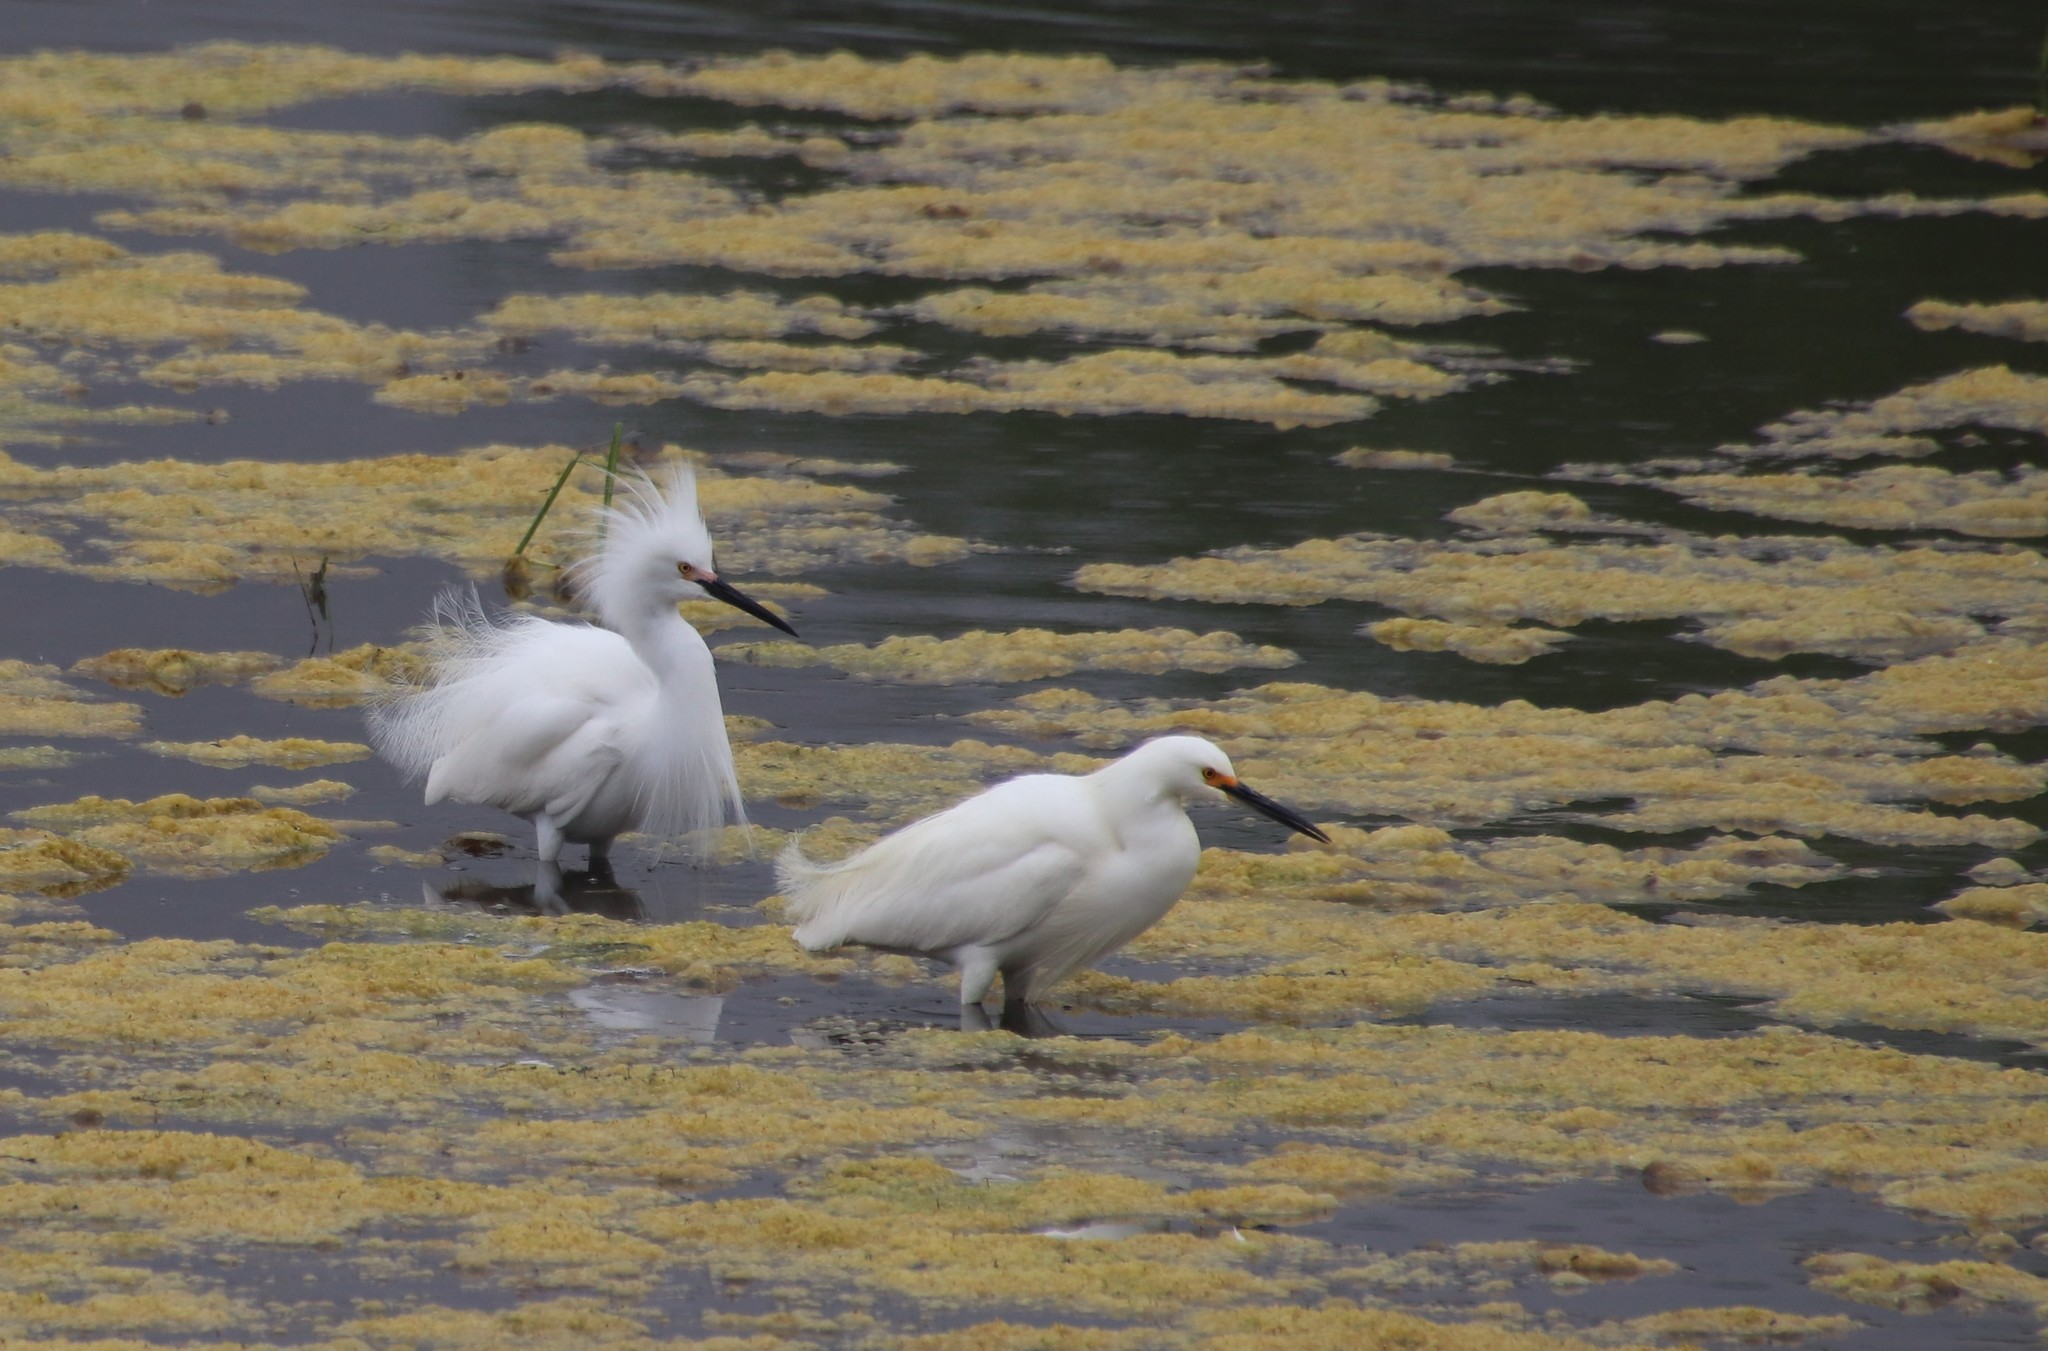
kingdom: Animalia
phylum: Chordata
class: Aves
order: Pelecaniformes
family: Ardeidae
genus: Egretta
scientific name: Egretta thula
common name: Snowy egret
